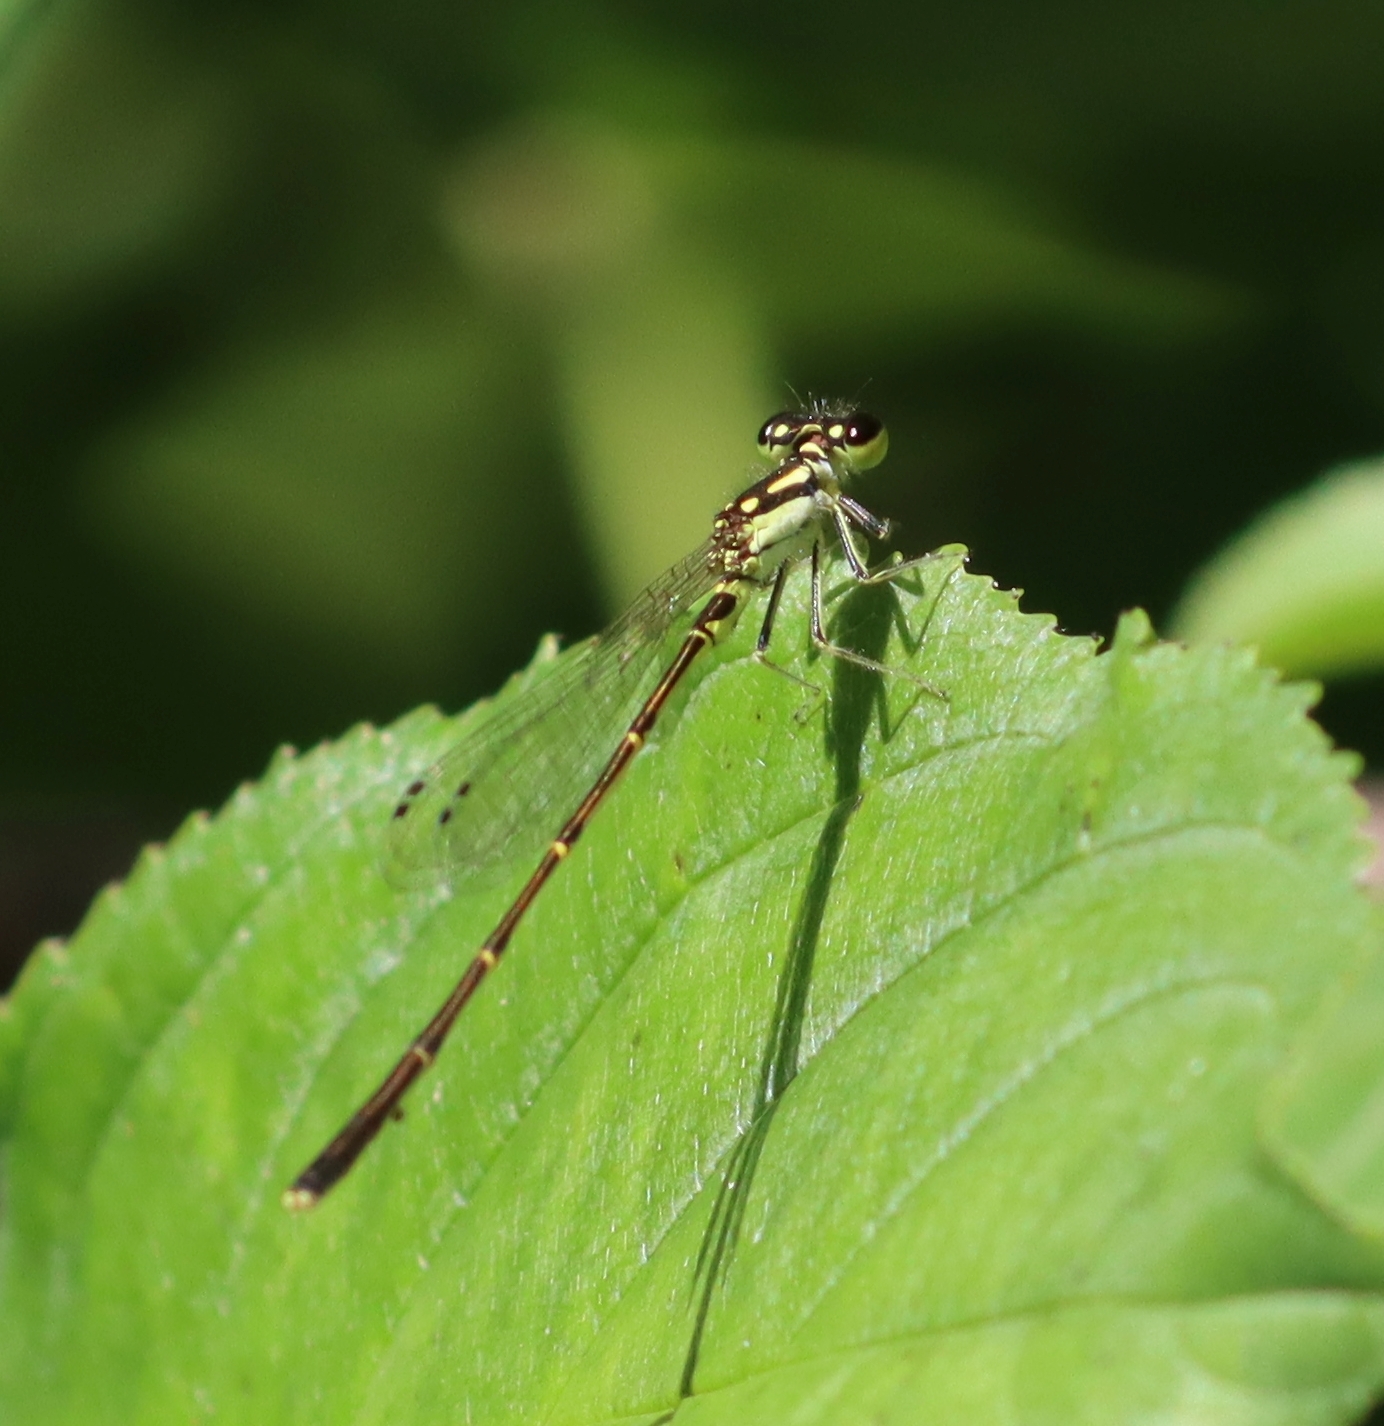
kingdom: Animalia
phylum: Arthropoda
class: Insecta
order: Odonata
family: Coenagrionidae
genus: Ischnura
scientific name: Ischnura posita
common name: Fragile forktail
